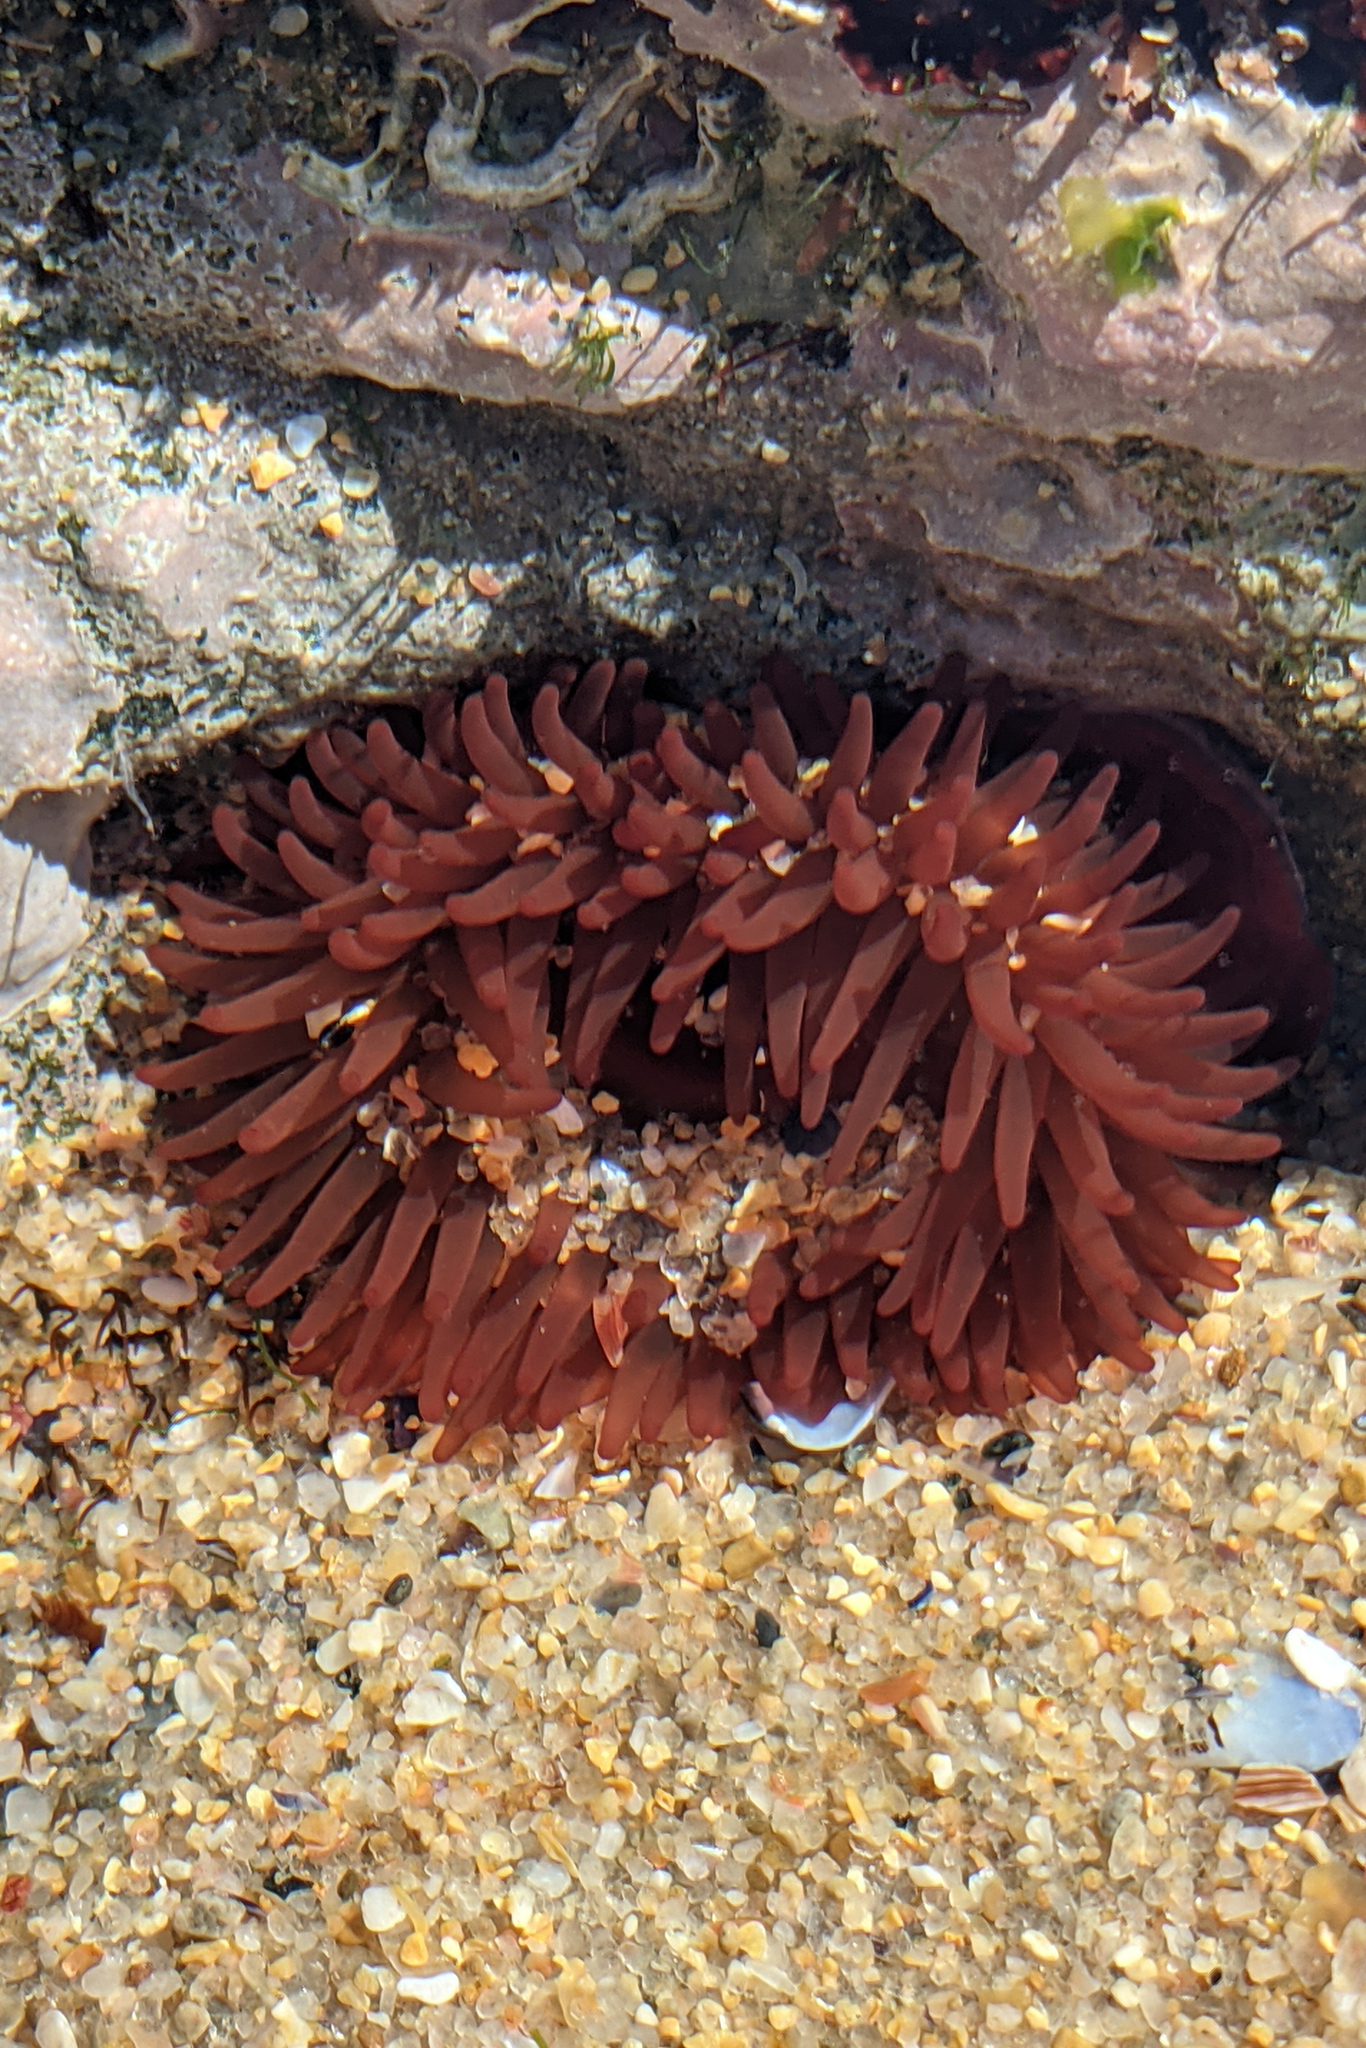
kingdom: Animalia
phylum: Cnidaria
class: Anthozoa
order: Actiniaria
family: Actiniidae
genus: Actinia
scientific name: Actinia equina
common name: Beadlet anemone
